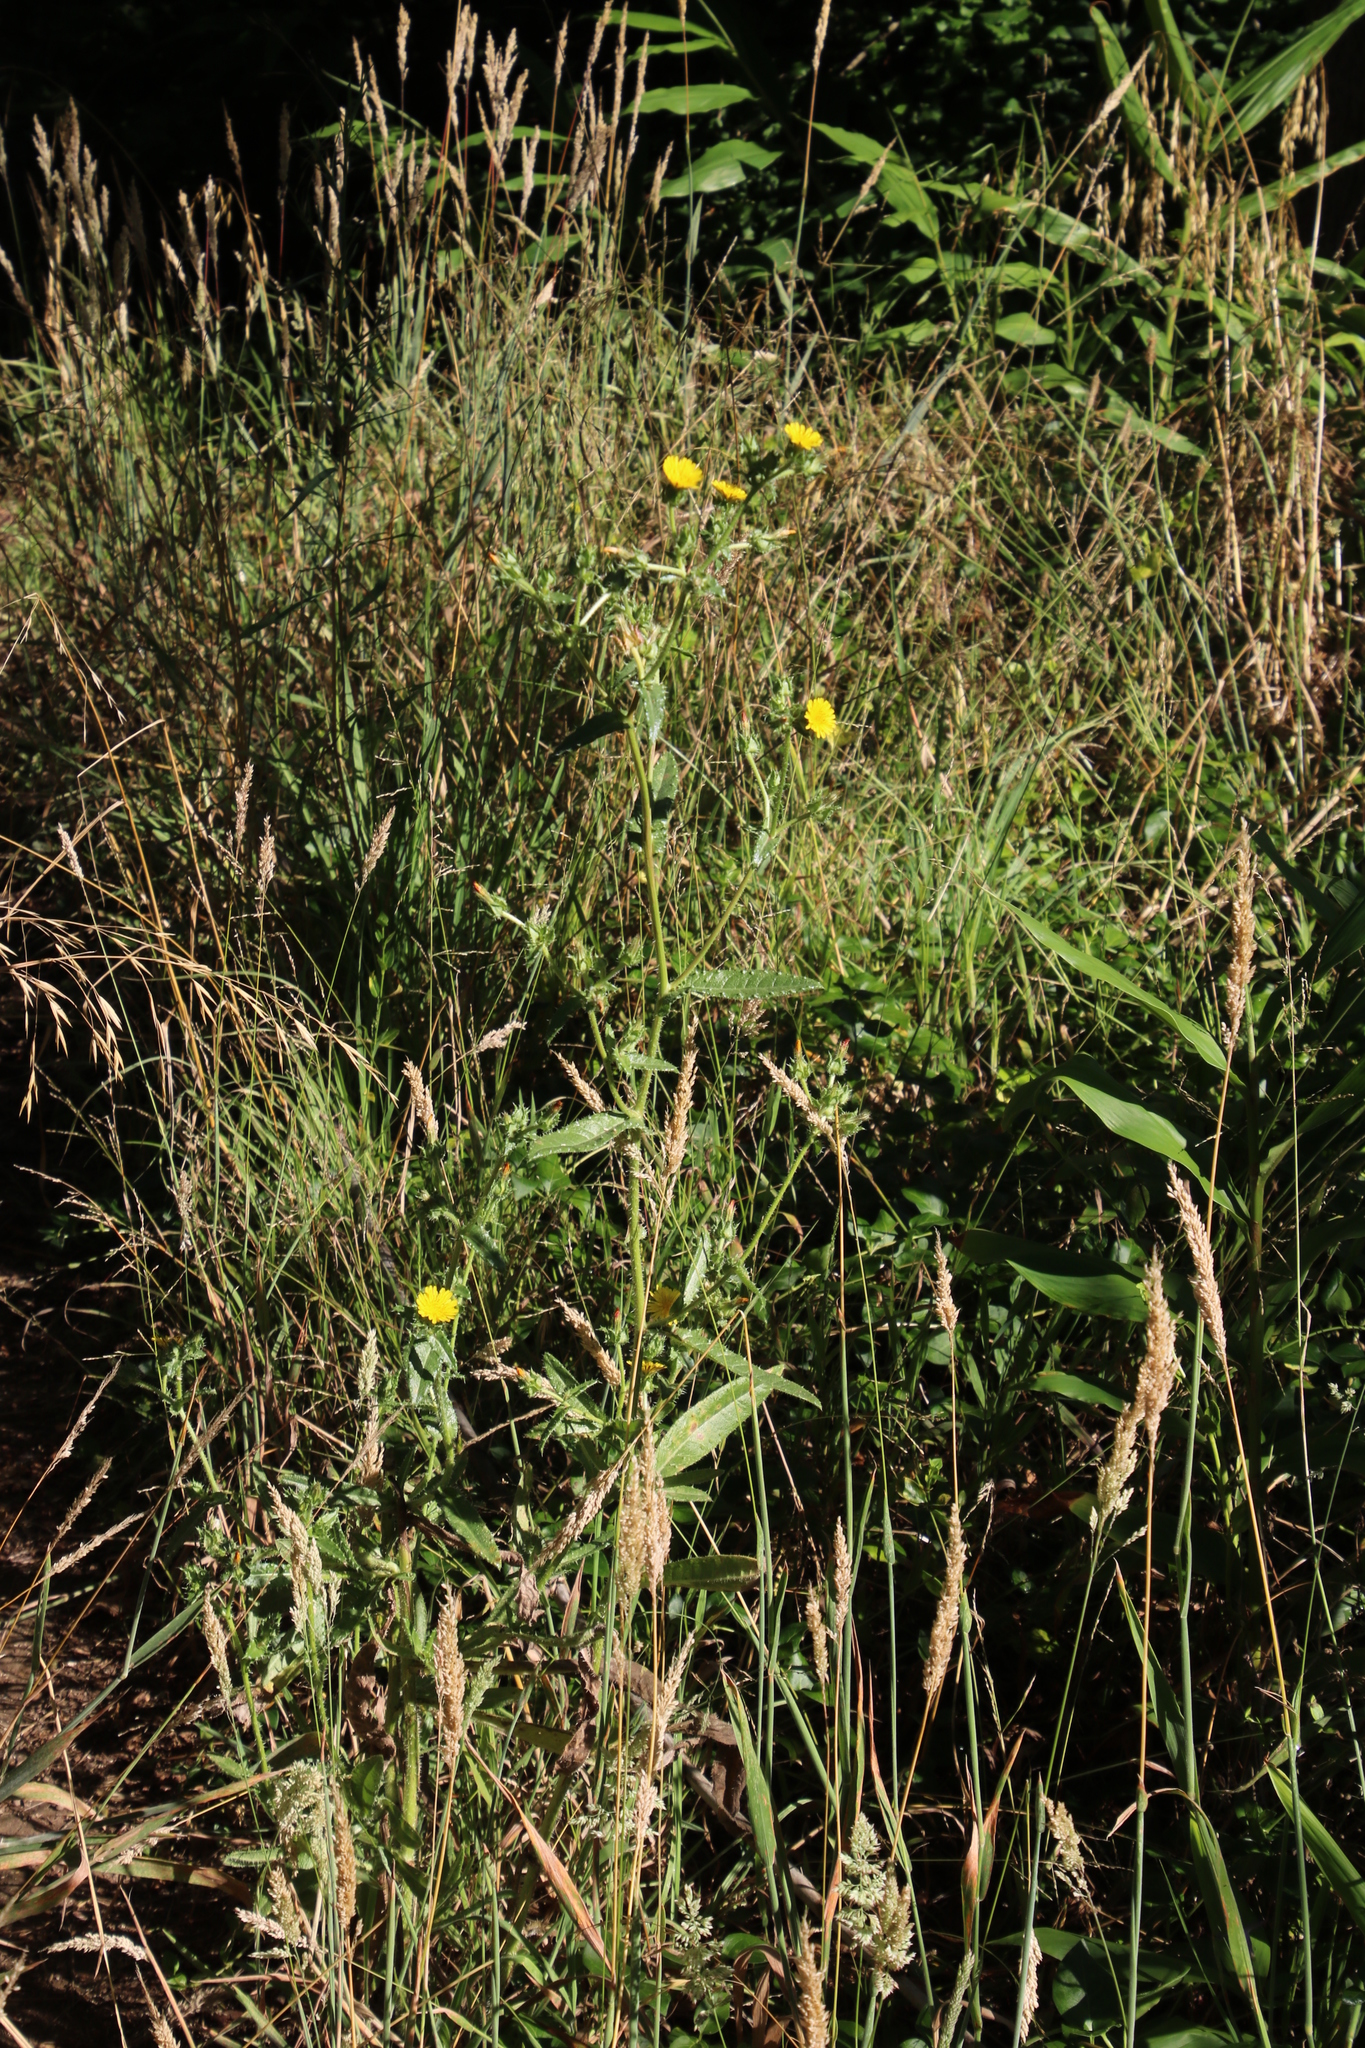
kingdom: Plantae
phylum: Tracheophyta
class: Magnoliopsida
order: Asterales
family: Asteraceae
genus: Helminthotheca
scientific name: Helminthotheca echioides
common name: Ox-tongue
